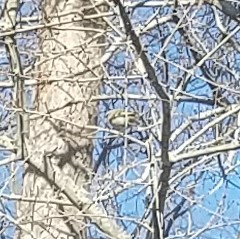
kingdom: Animalia
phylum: Chordata
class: Aves
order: Passeriformes
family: Regulidae
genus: Regulus
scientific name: Regulus satrapa
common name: Golden-crowned kinglet
